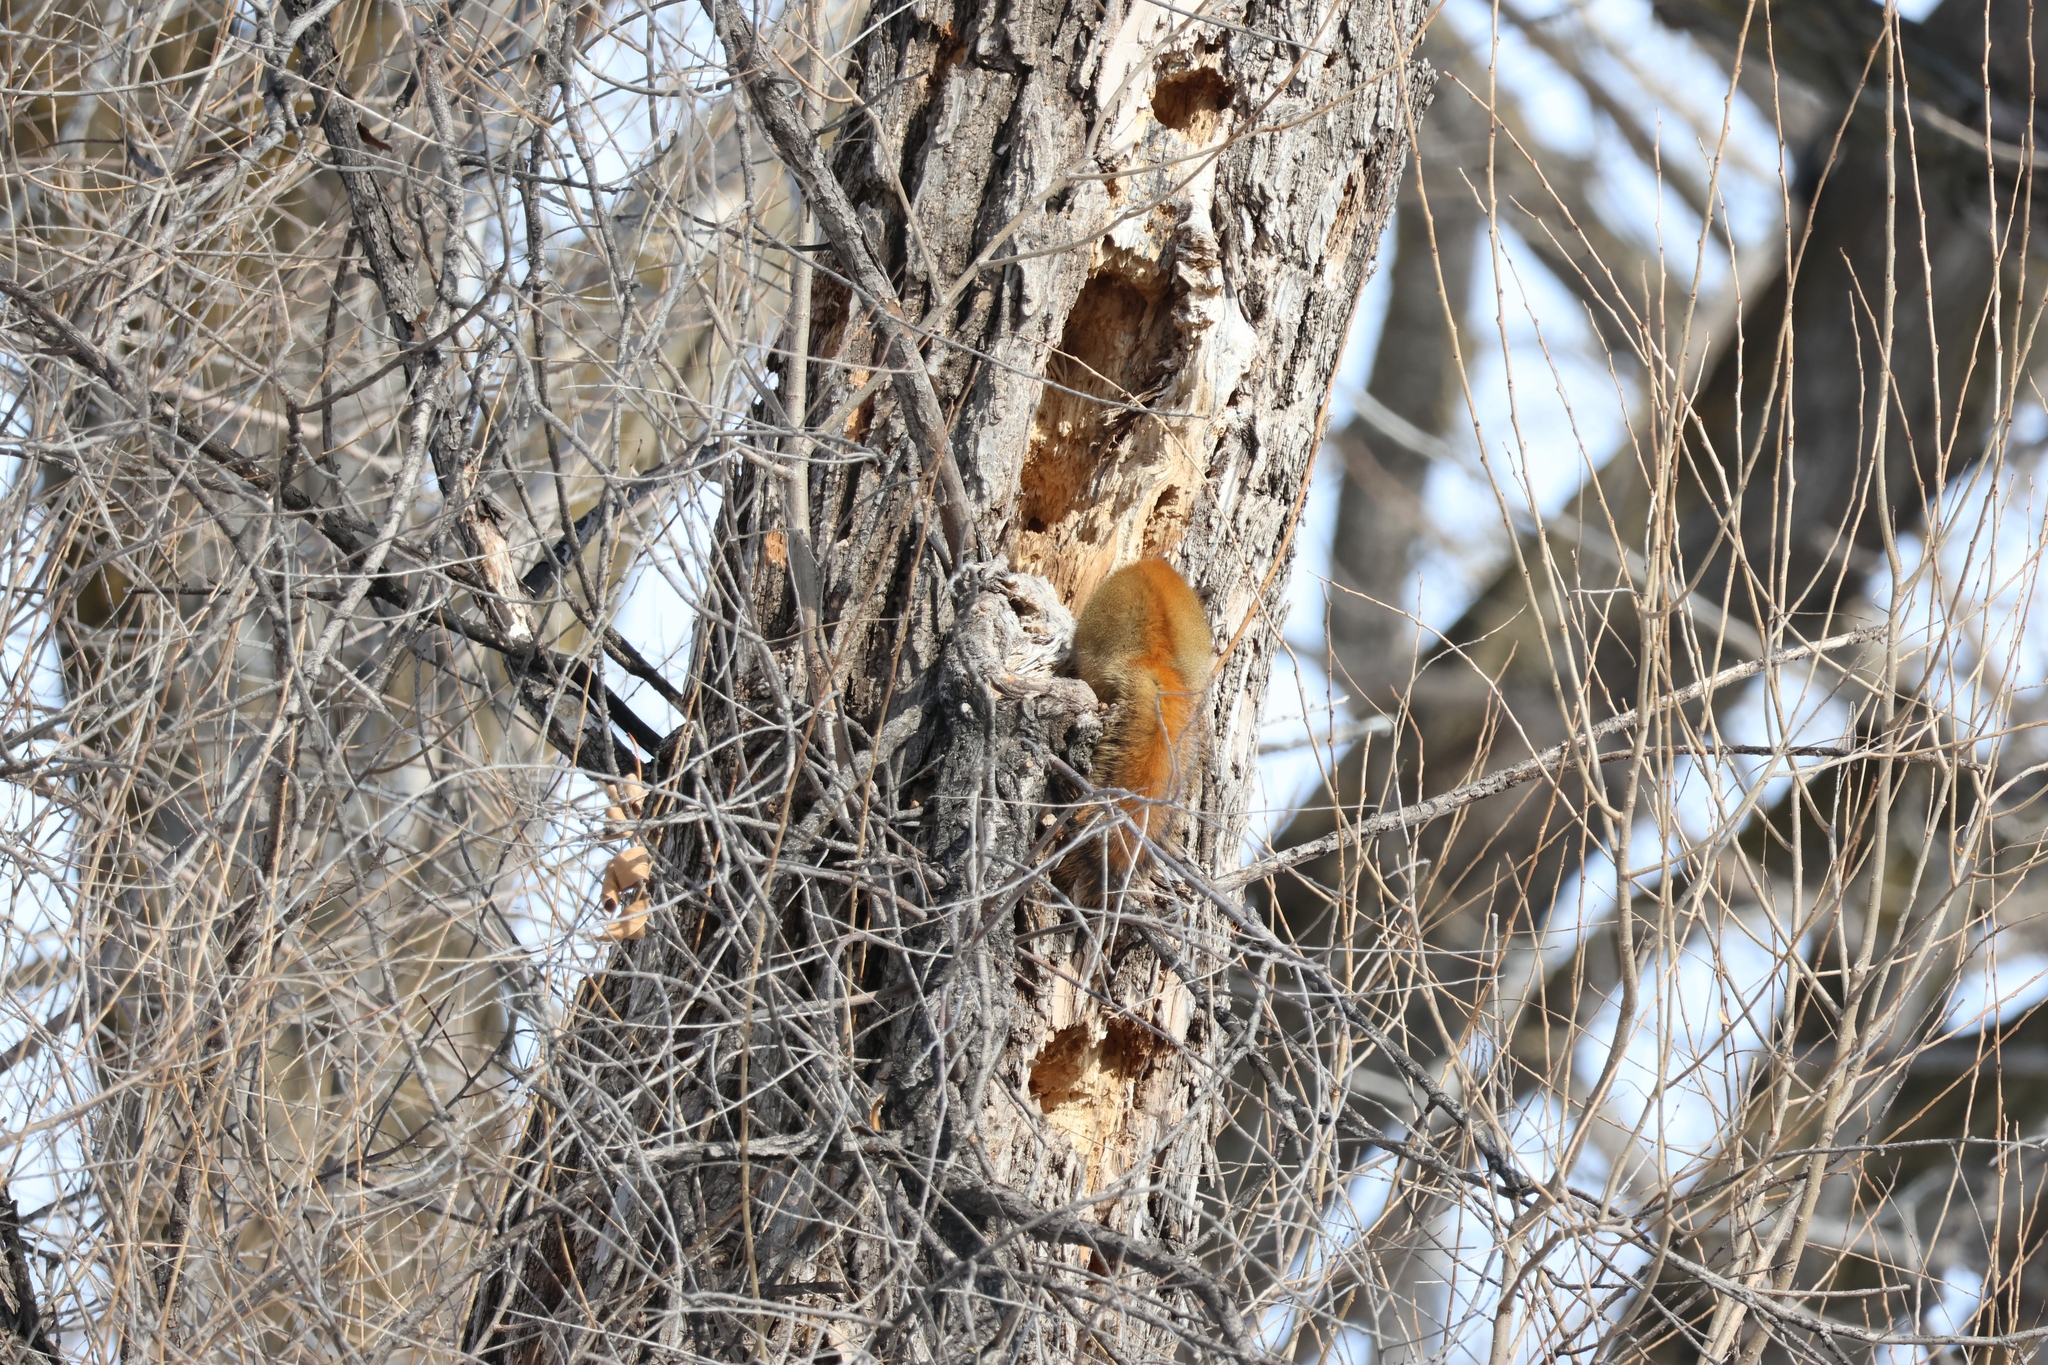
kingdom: Animalia
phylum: Chordata
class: Mammalia
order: Rodentia
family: Sciuridae
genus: Tamiasciurus
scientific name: Tamiasciurus hudsonicus
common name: Red squirrel
